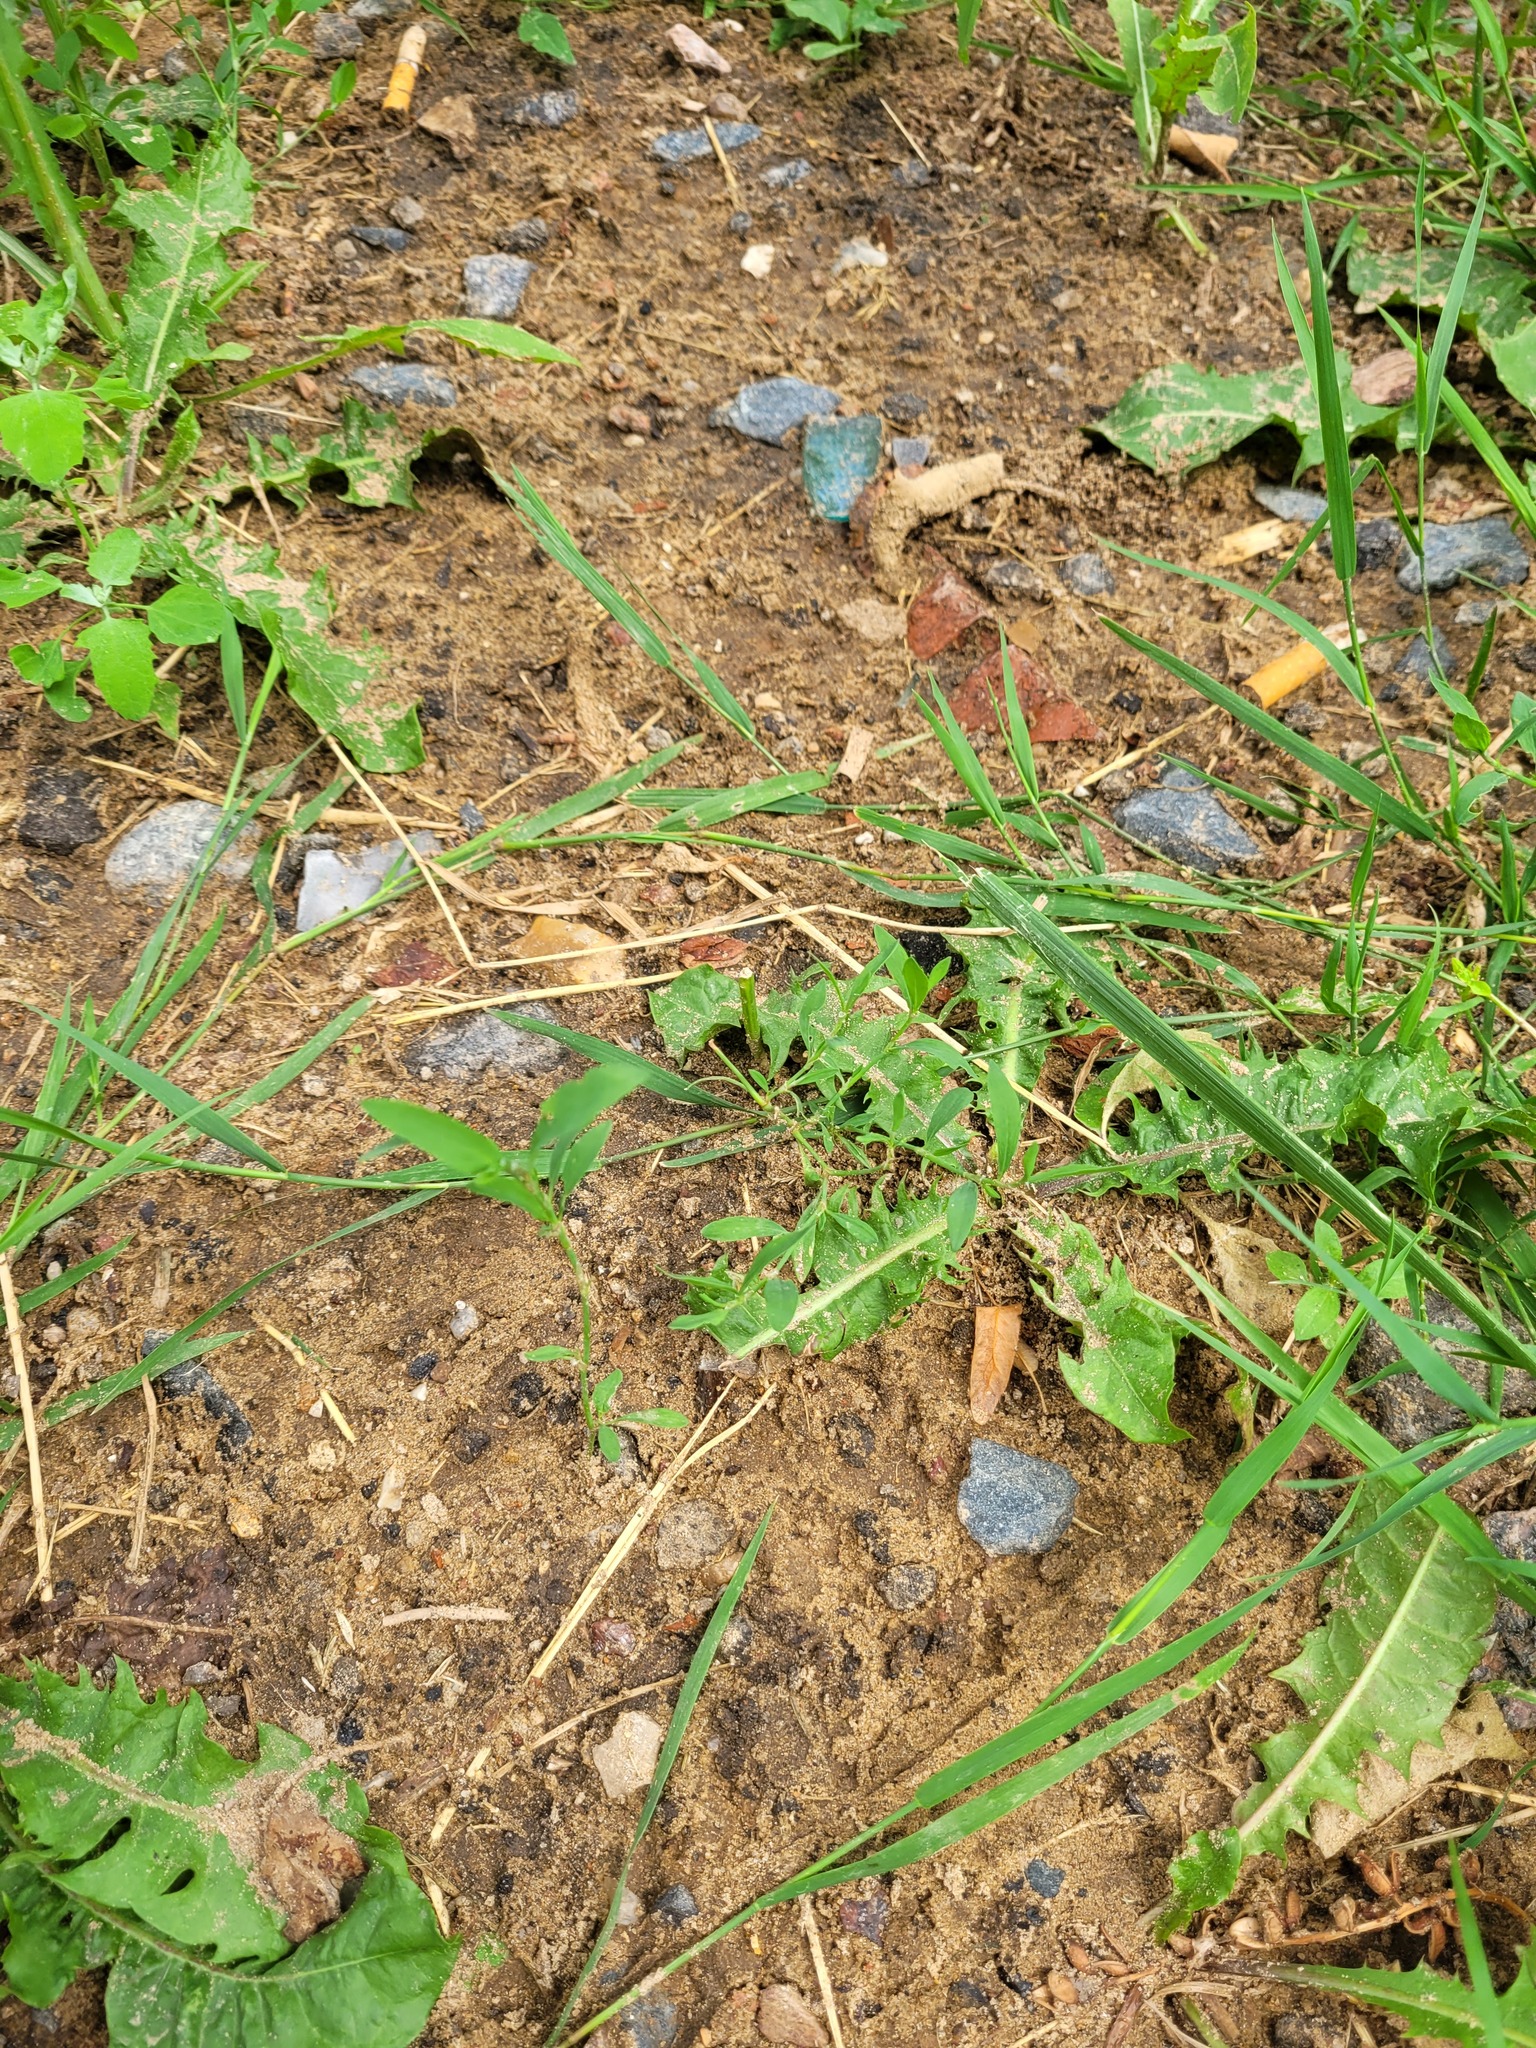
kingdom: Plantae
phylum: Tracheophyta
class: Magnoliopsida
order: Caryophyllales
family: Polygonaceae
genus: Polygonum
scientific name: Polygonum
